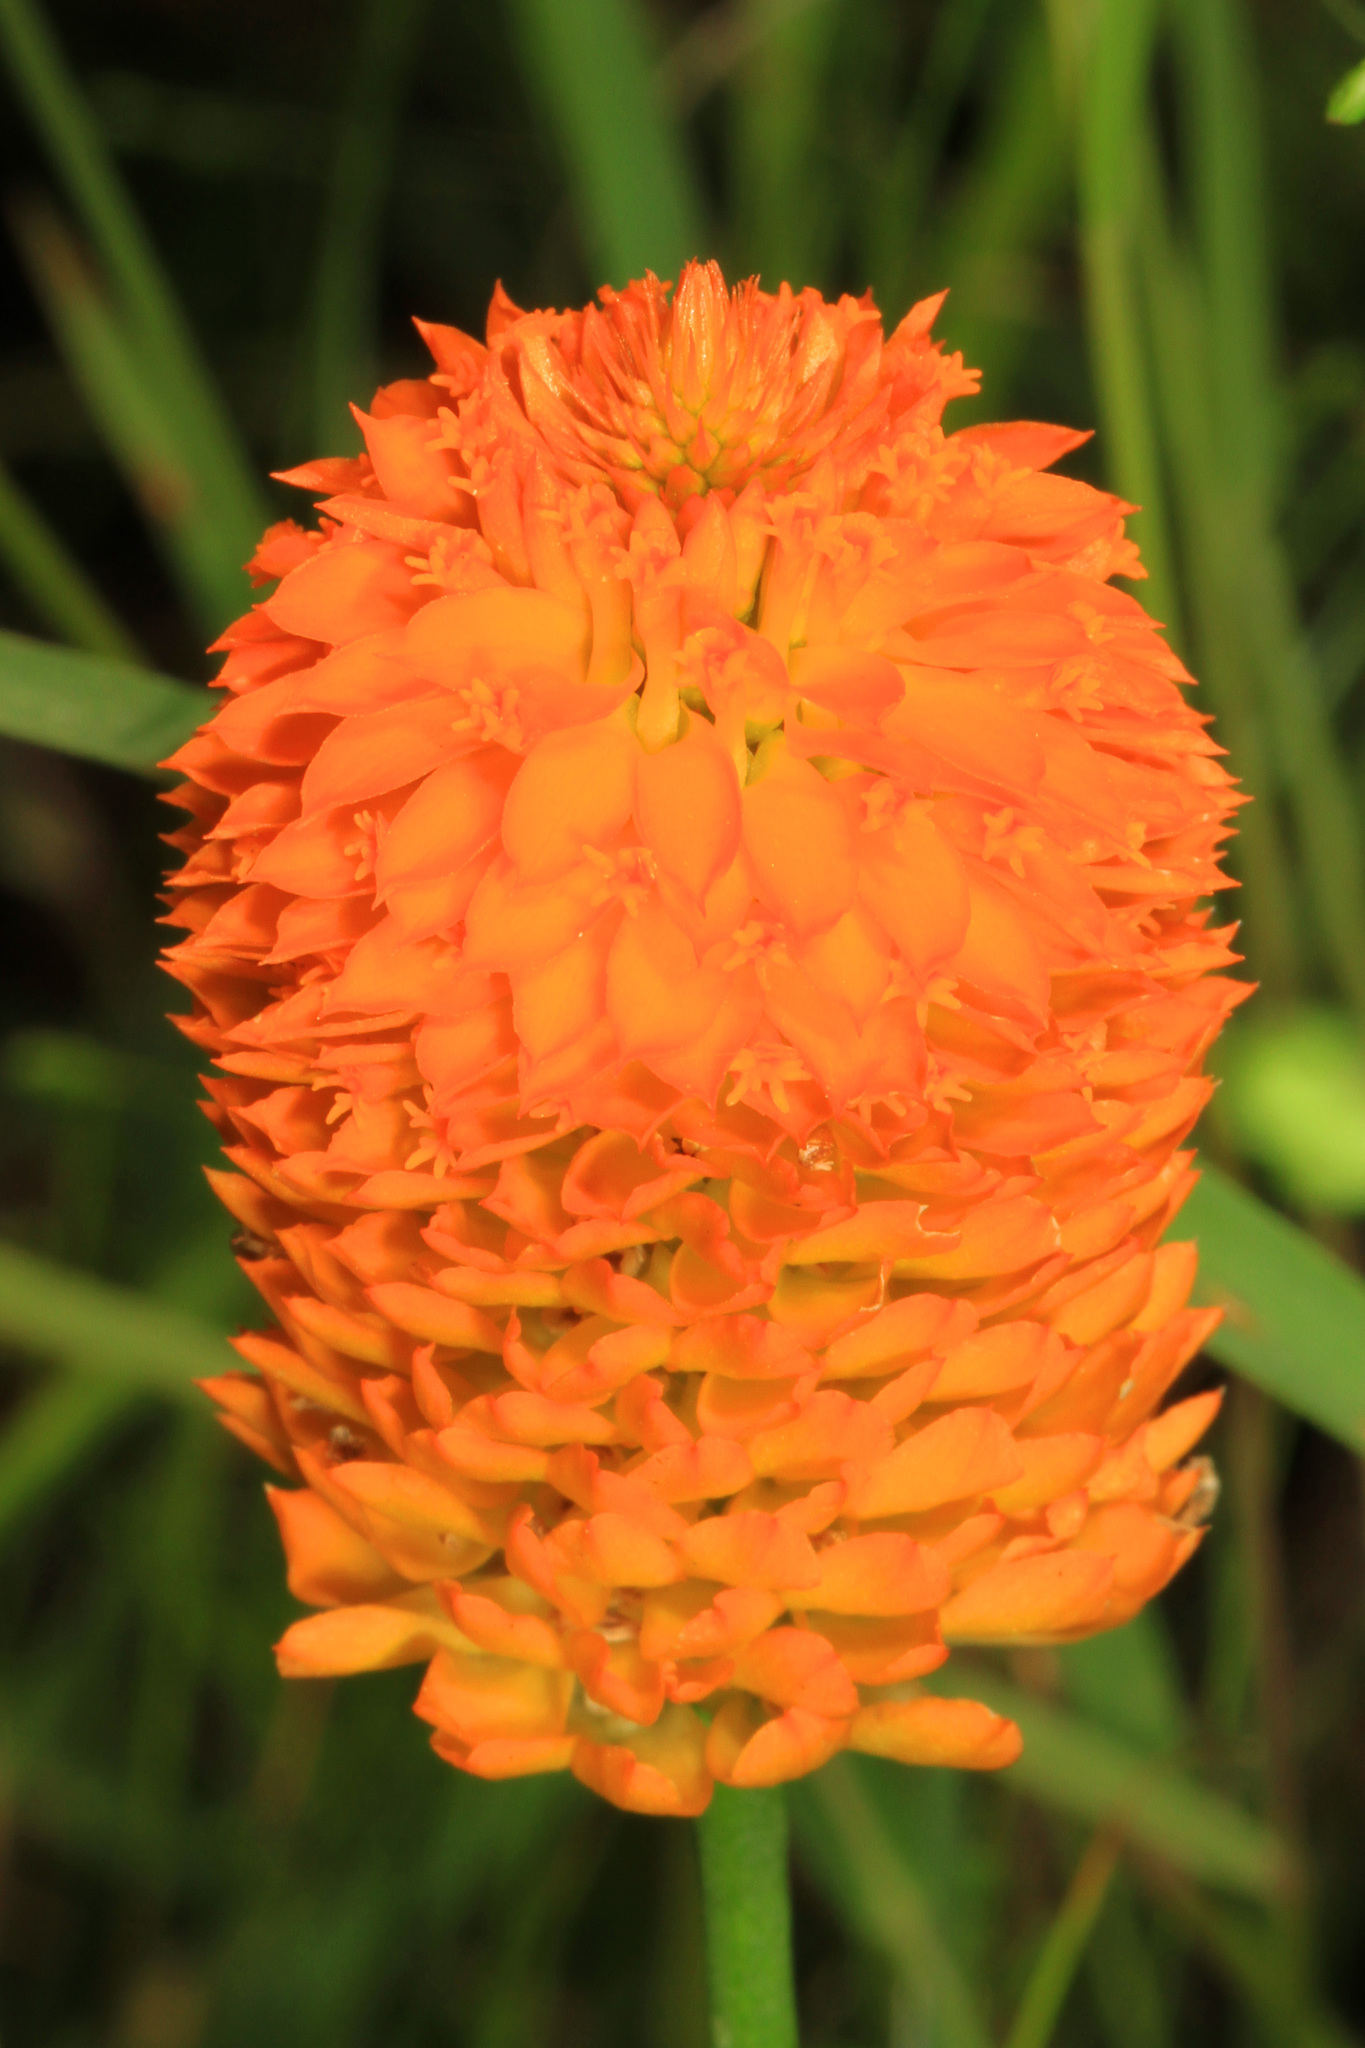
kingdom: Plantae
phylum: Tracheophyta
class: Magnoliopsida
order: Fabales
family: Polygalaceae
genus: Polygala
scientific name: Polygala lutea
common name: Orange milkwort
